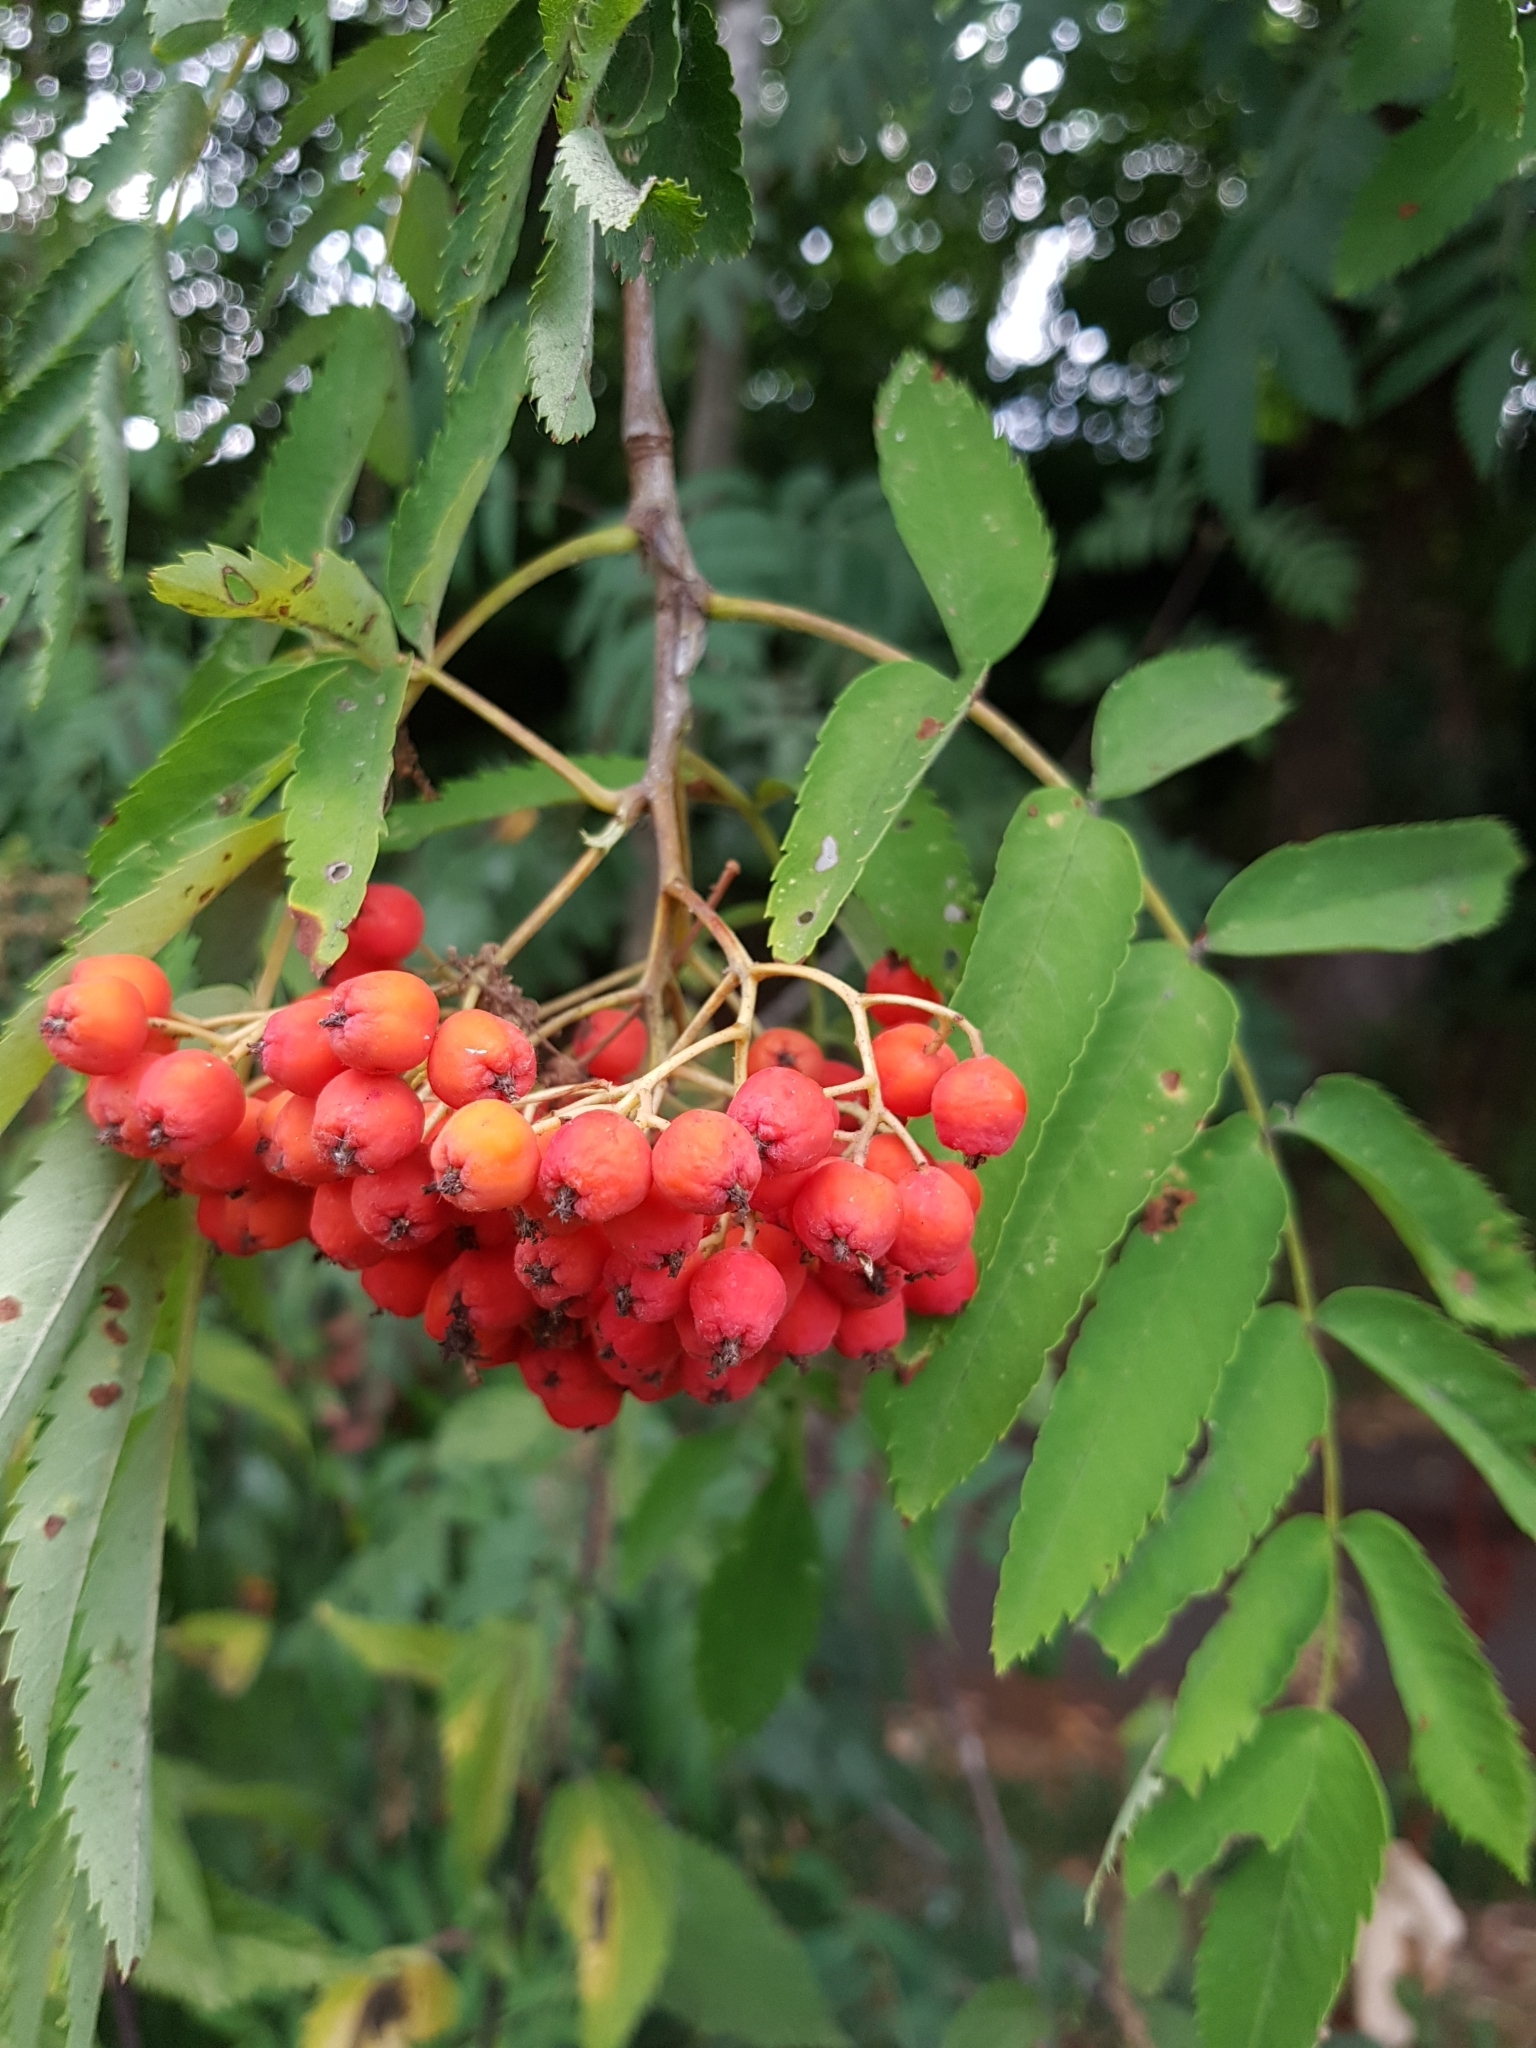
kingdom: Plantae
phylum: Tracheophyta
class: Magnoliopsida
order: Rosales
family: Rosaceae
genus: Sorbus
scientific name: Sorbus aucuparia
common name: Rowan
